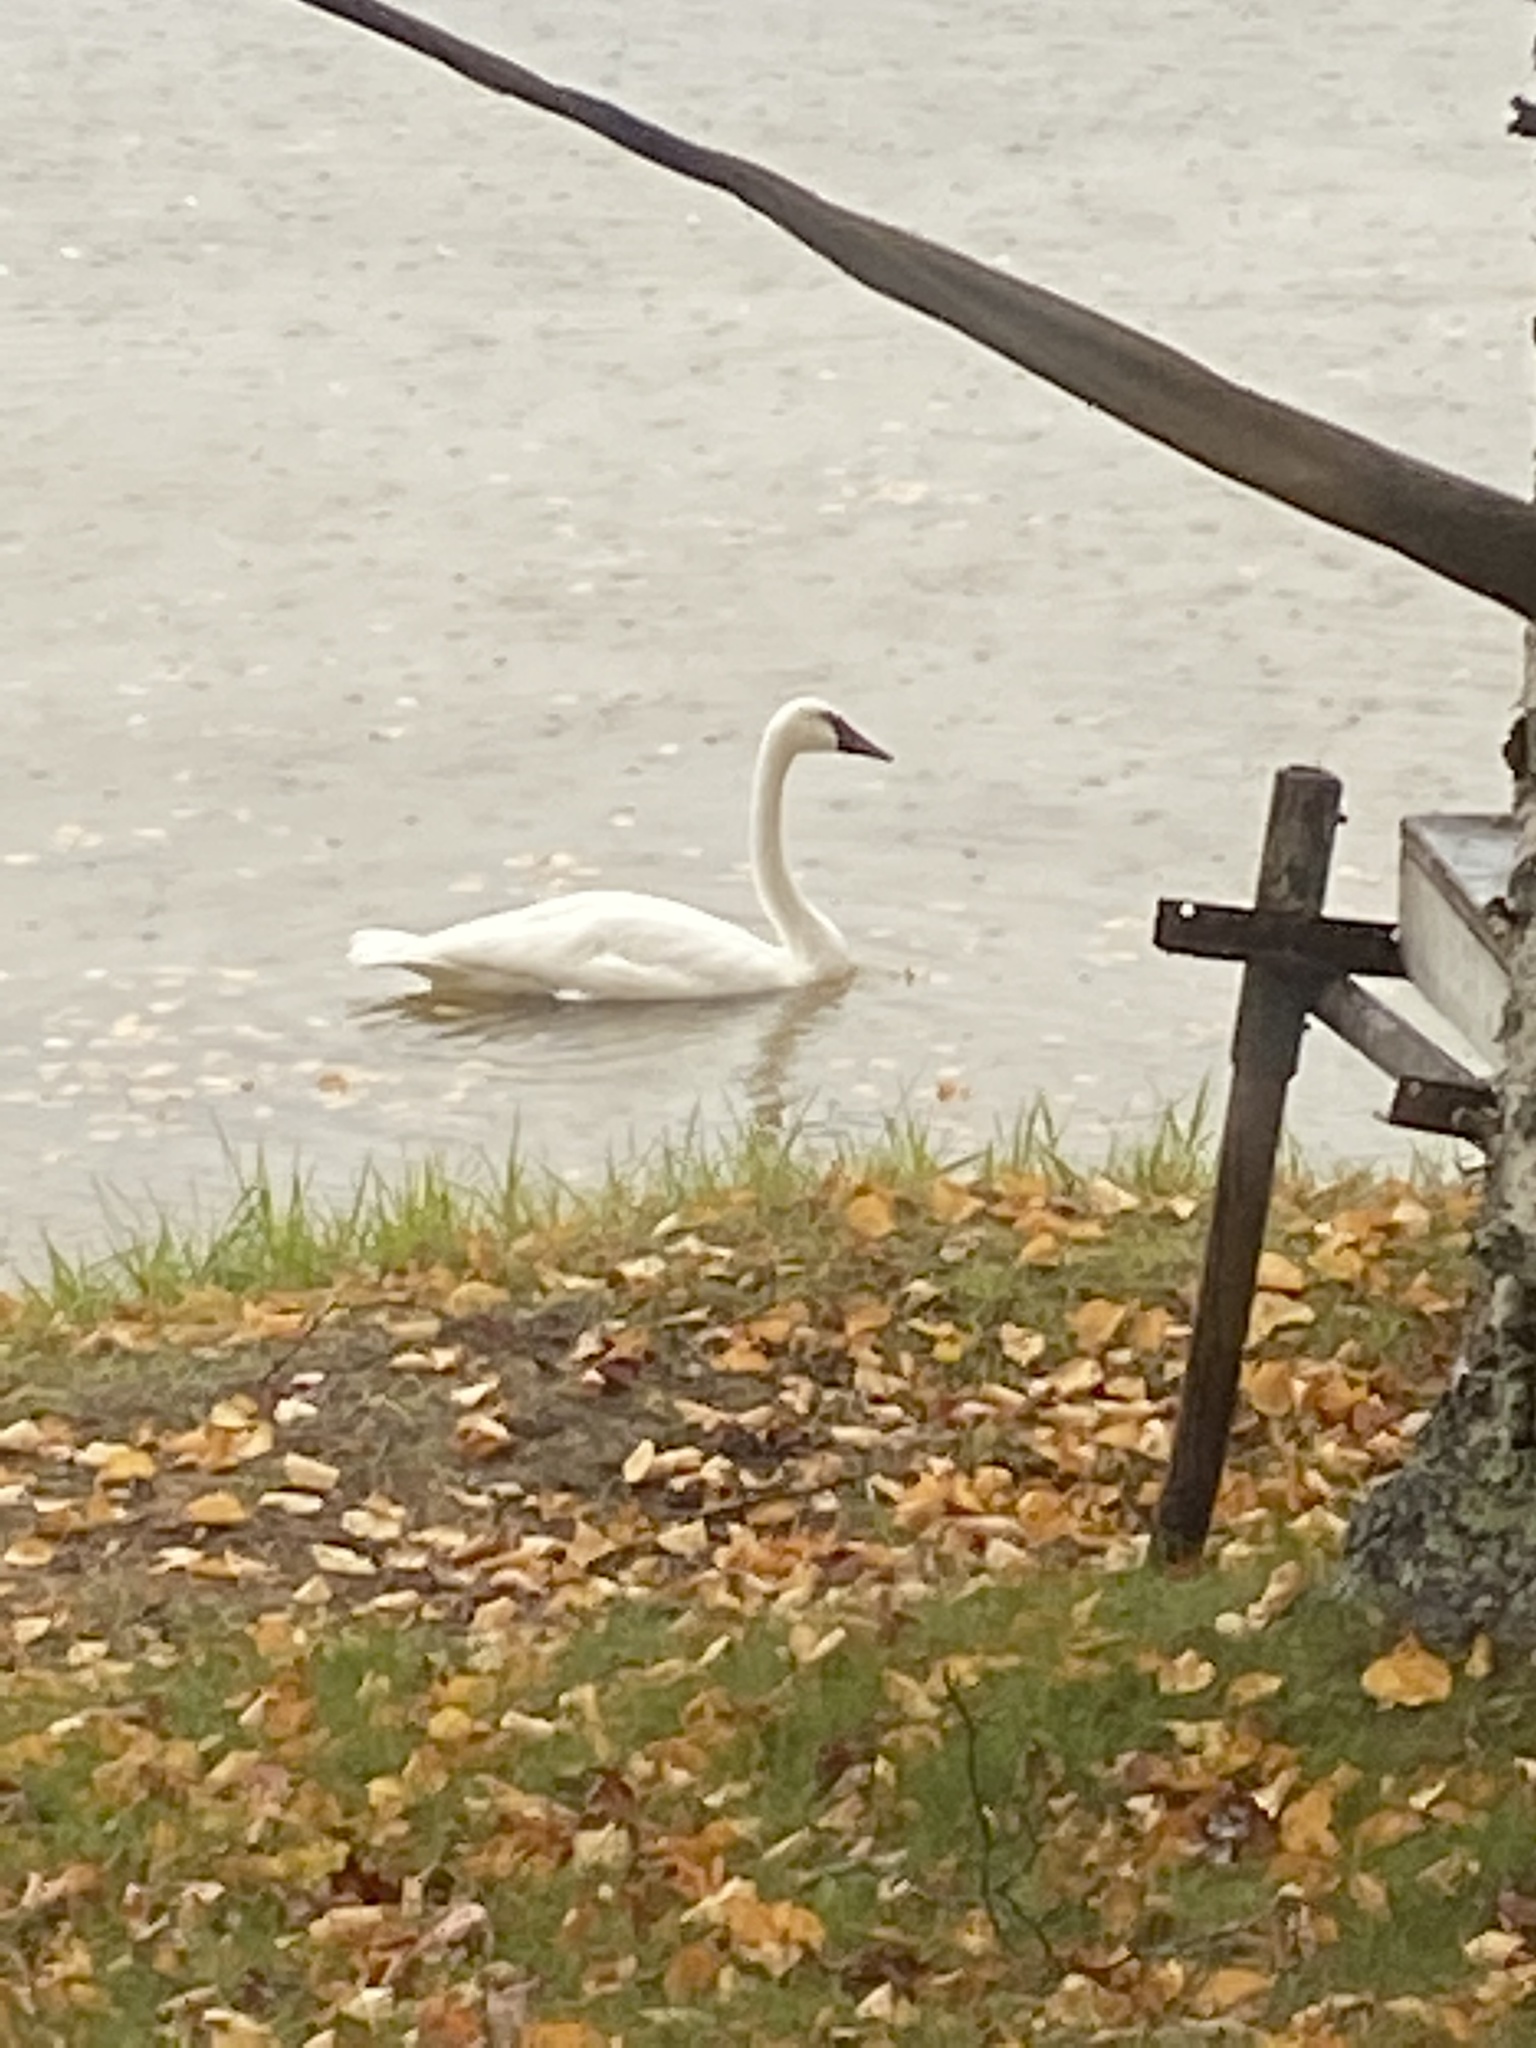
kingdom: Animalia
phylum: Chordata
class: Aves
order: Anseriformes
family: Anatidae
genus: Cygnus
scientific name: Cygnus buccinator
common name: Trumpeter swan
